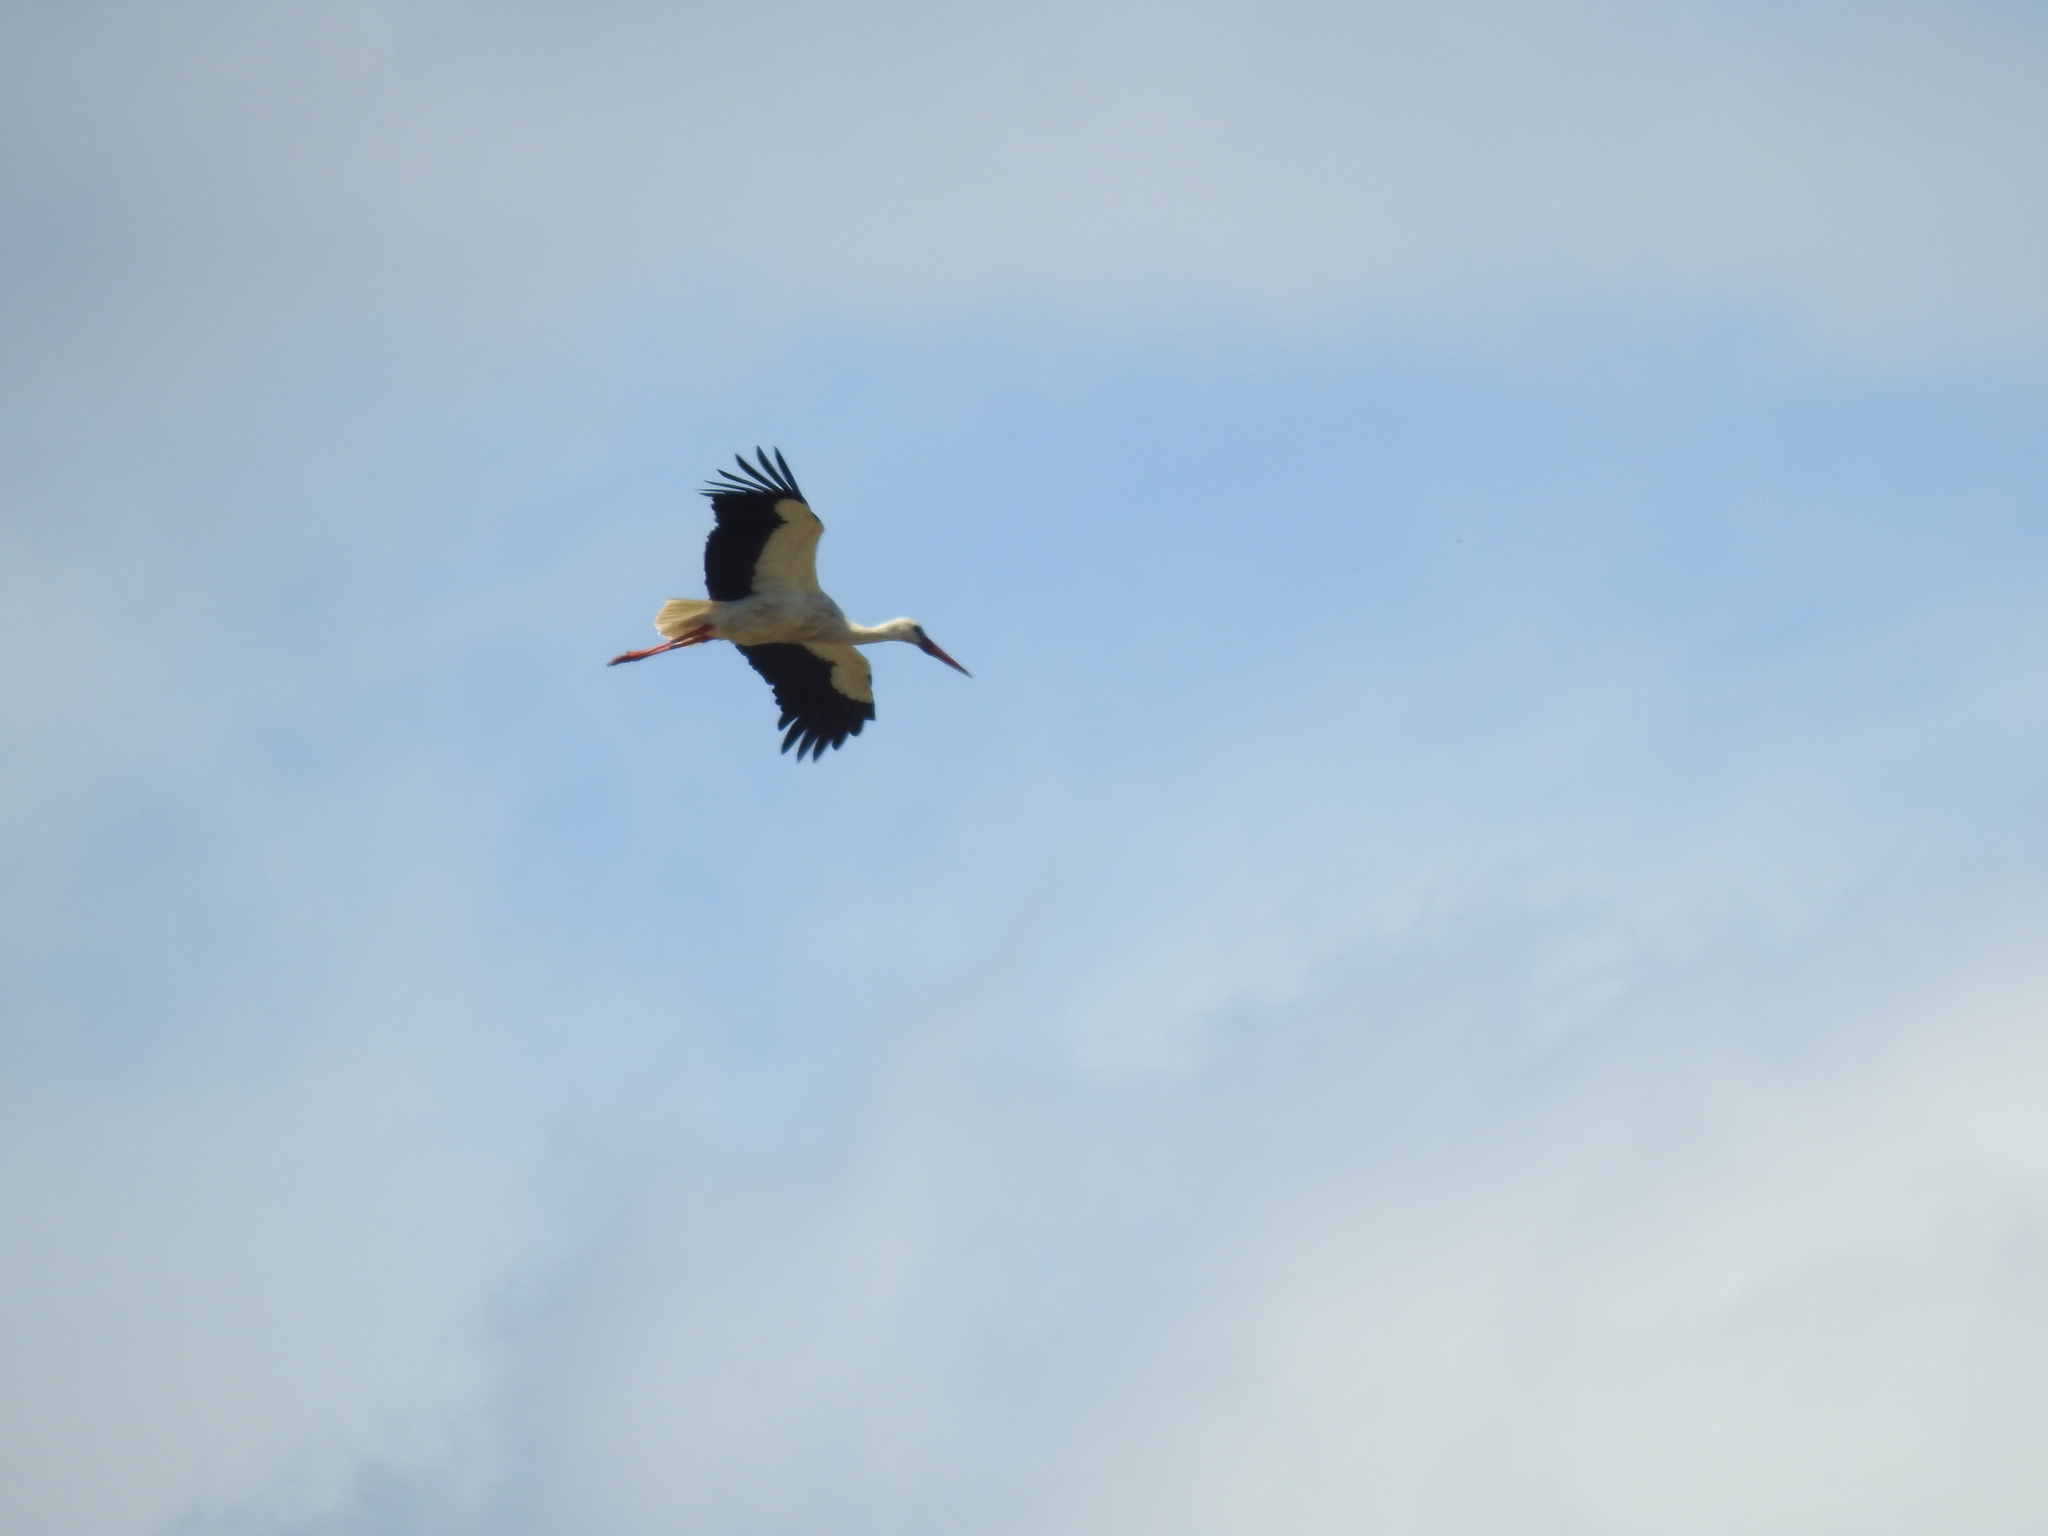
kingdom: Animalia
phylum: Chordata
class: Aves
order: Ciconiiformes
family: Ciconiidae
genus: Ciconia
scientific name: Ciconia ciconia
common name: White stork
